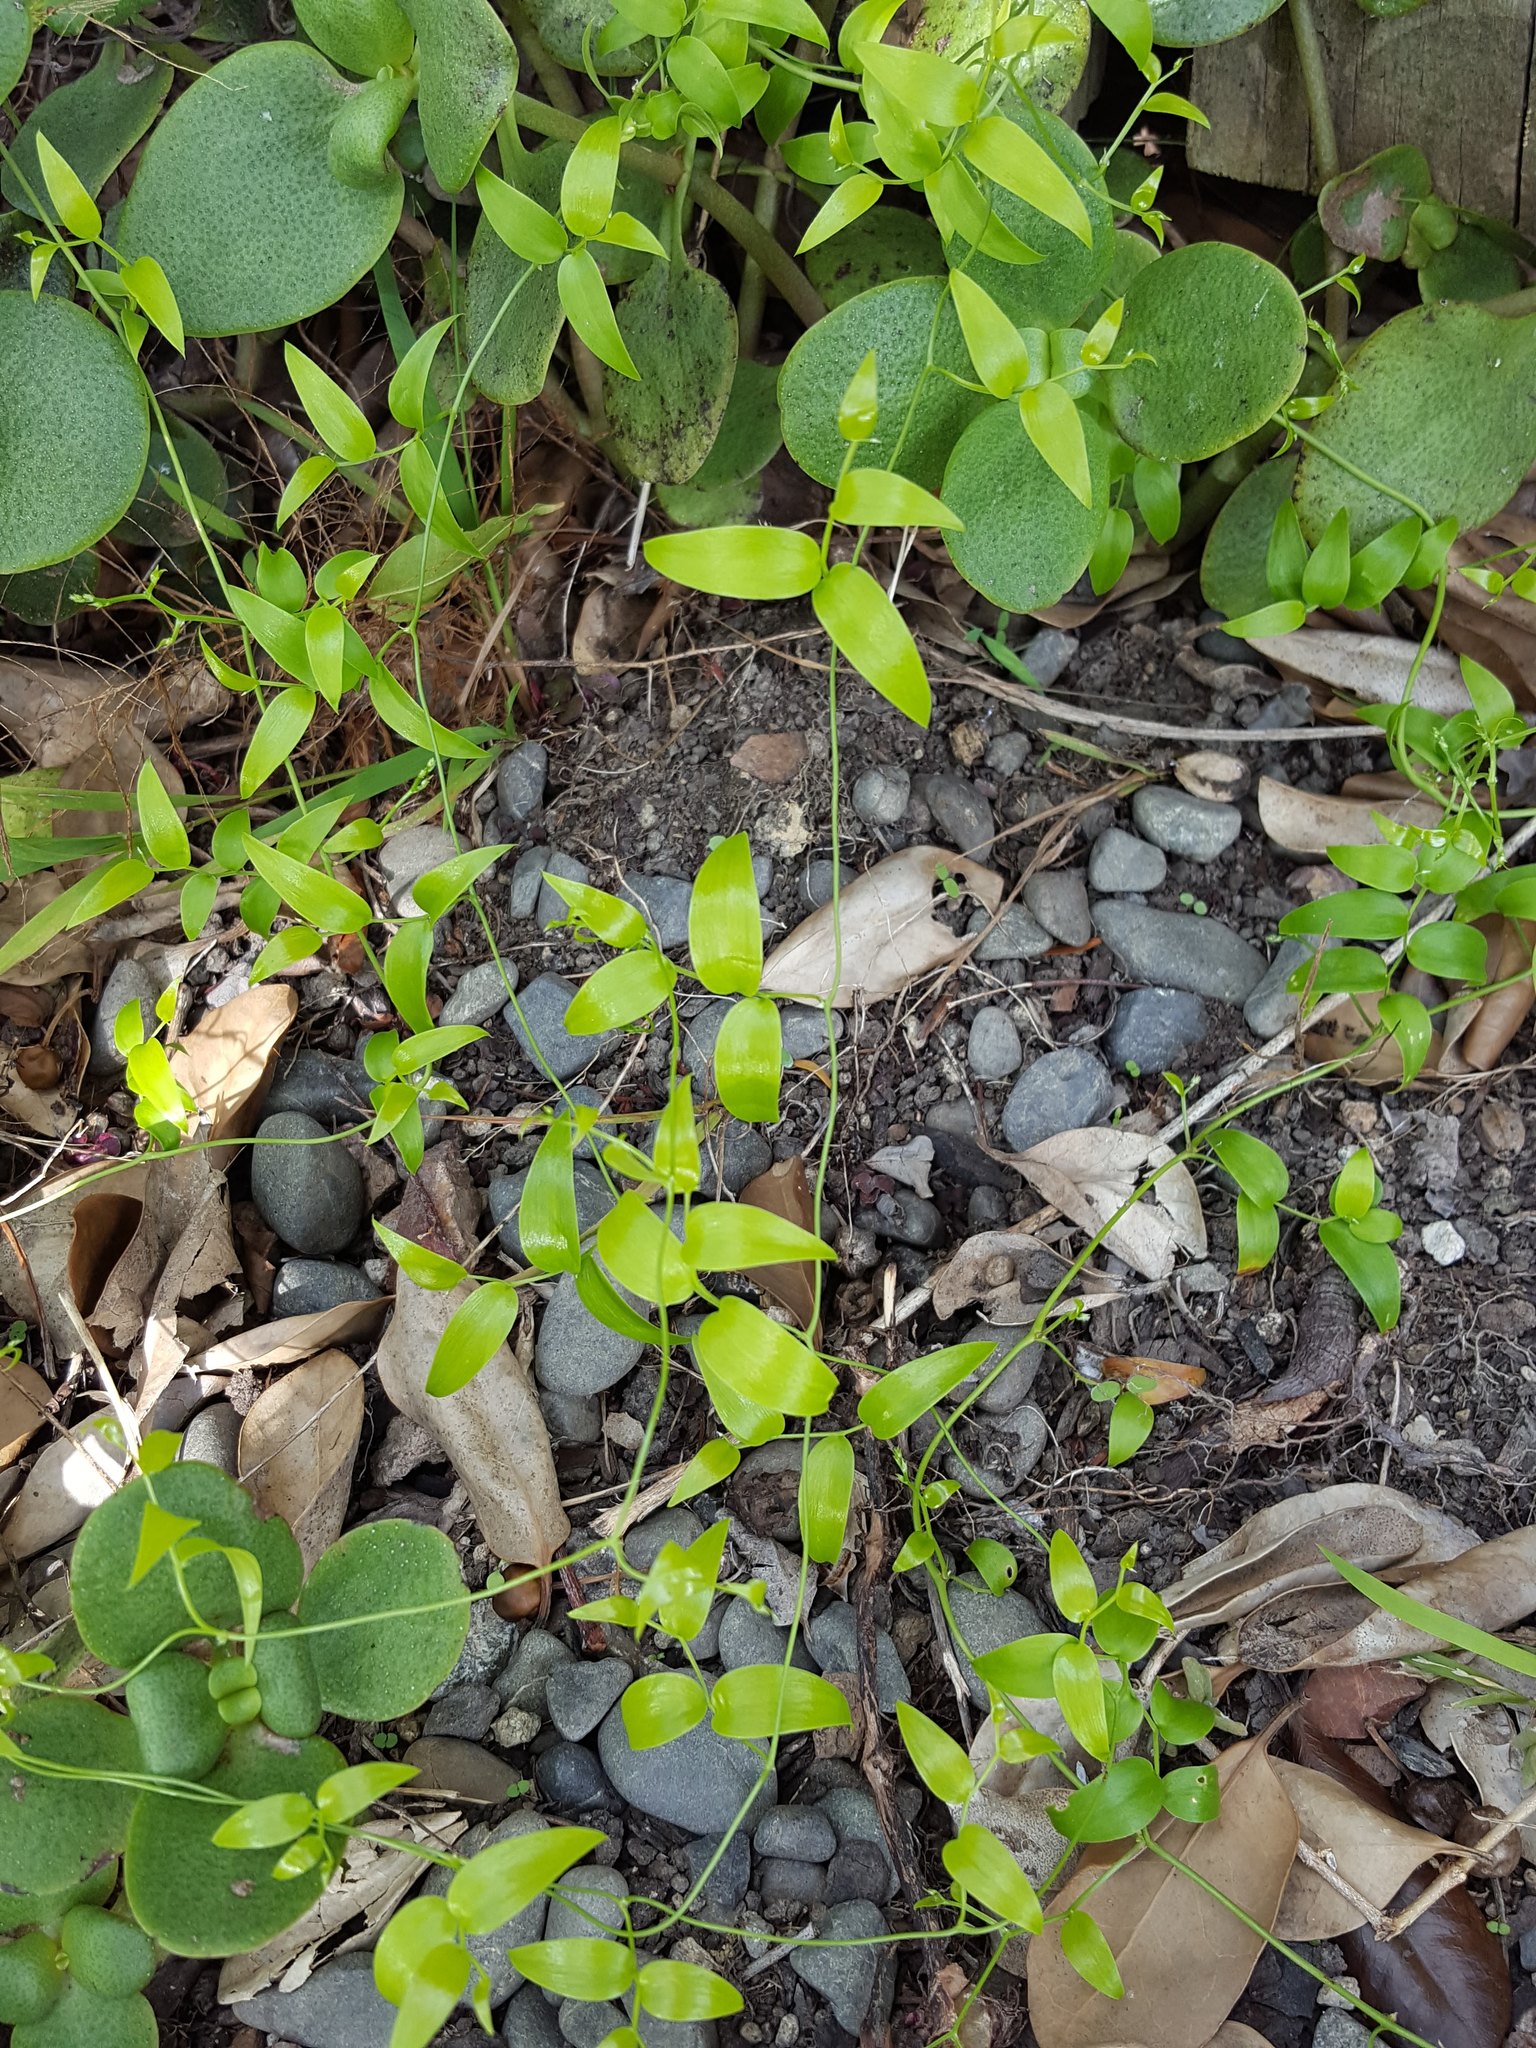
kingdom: Plantae
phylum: Tracheophyta
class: Liliopsida
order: Asparagales
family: Asparagaceae
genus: Asparagus
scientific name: Asparagus asparagoides
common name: African asparagus fern
